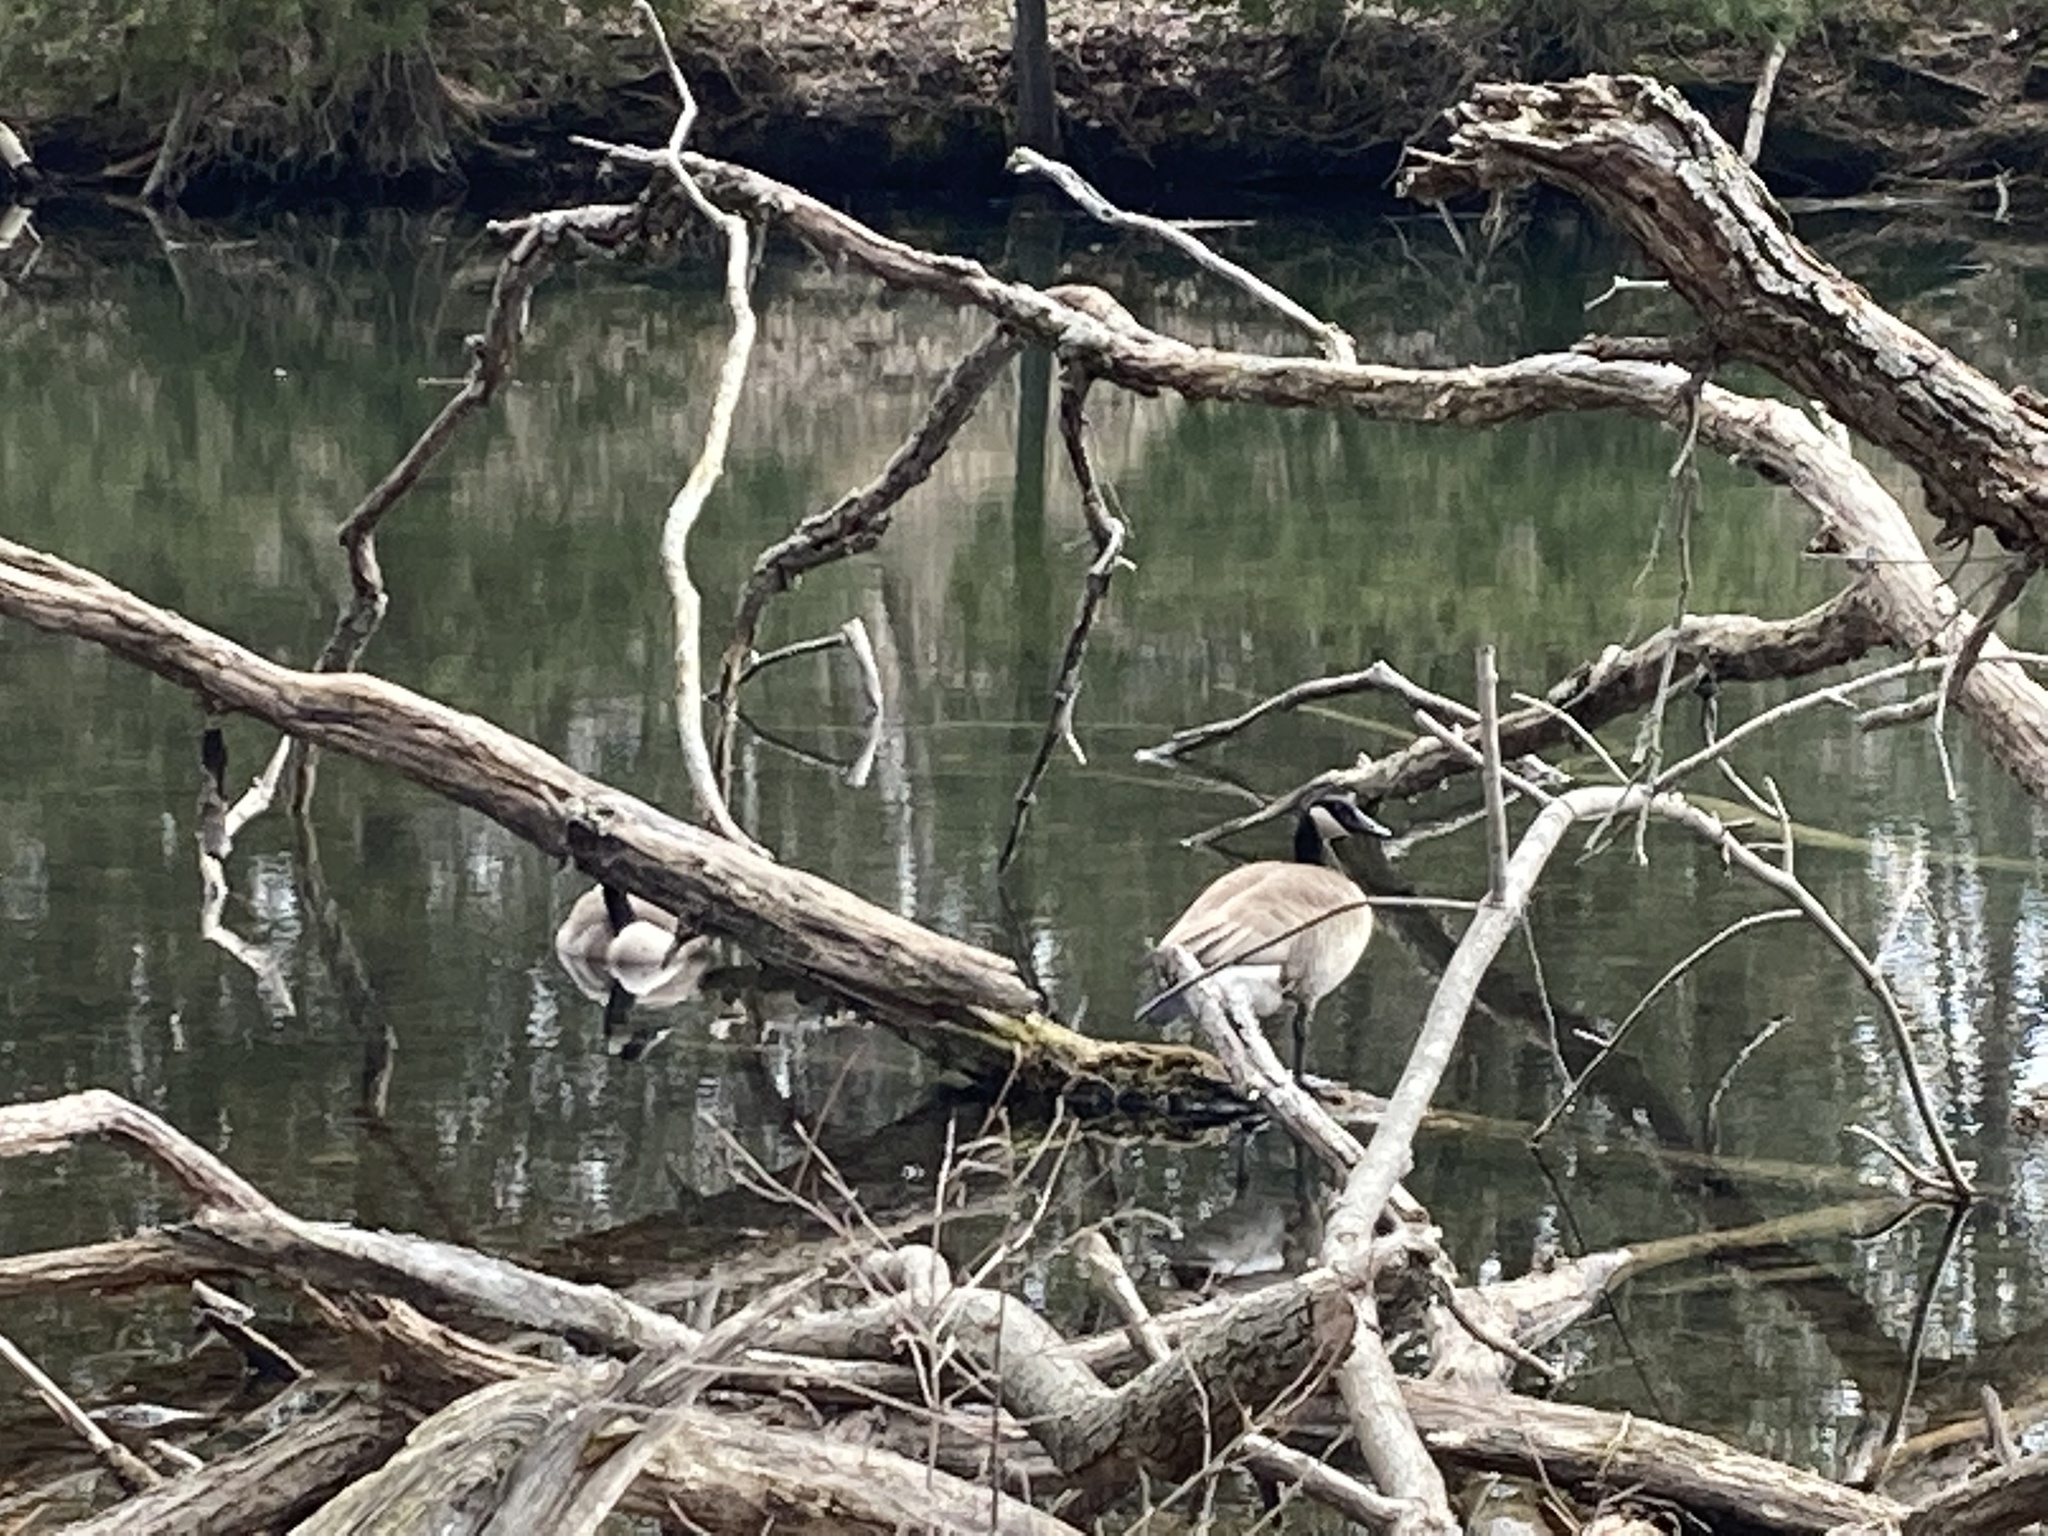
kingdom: Animalia
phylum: Chordata
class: Aves
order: Anseriformes
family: Anatidae
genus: Branta
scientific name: Branta canadensis
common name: Canada goose
